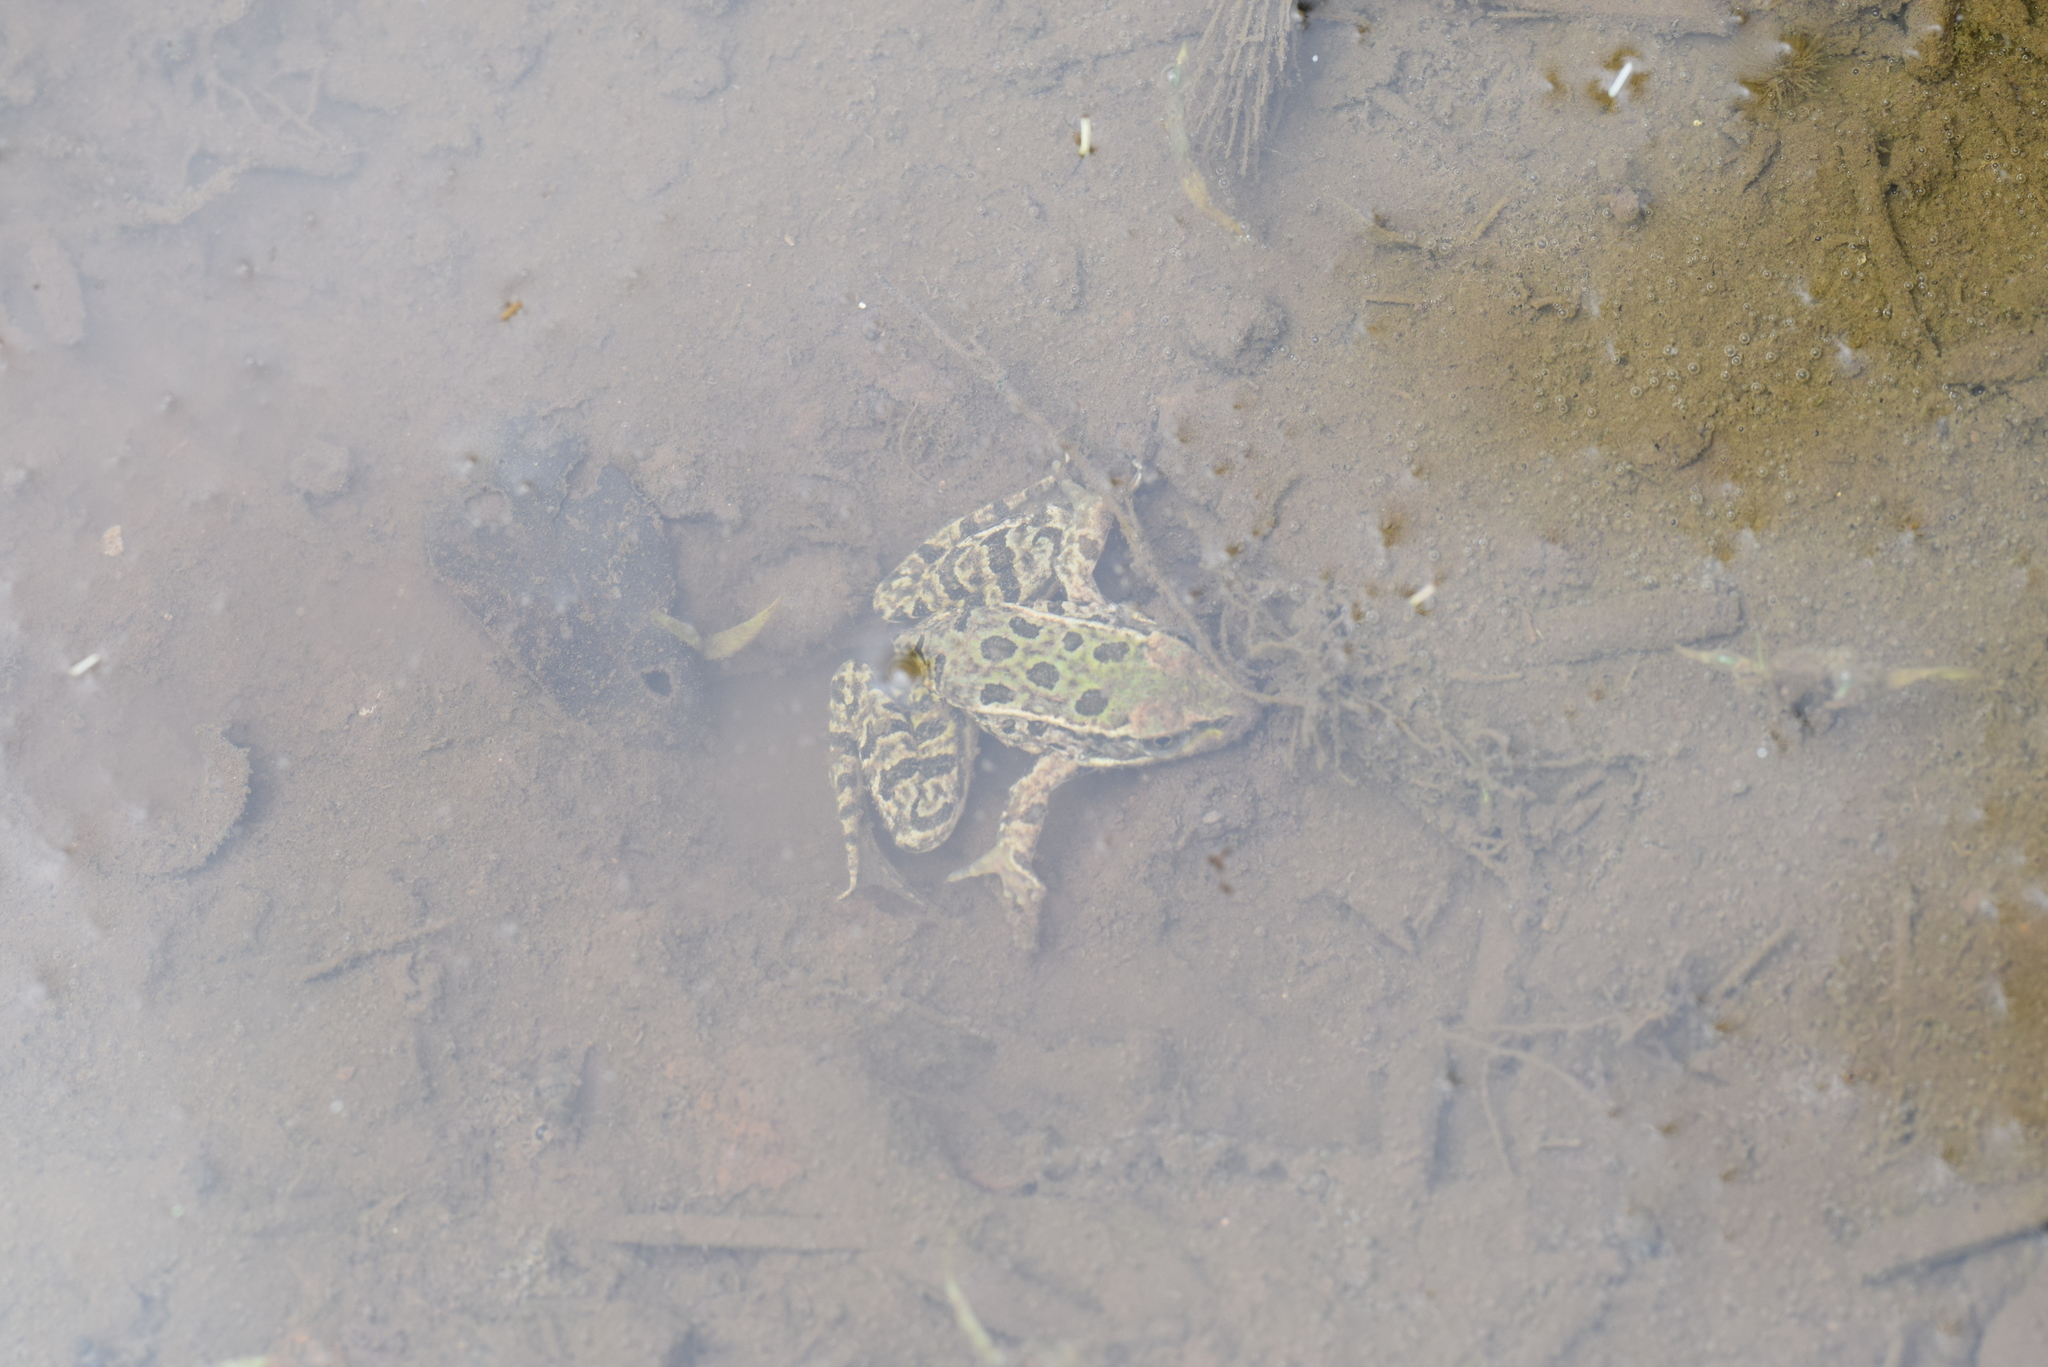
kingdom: Animalia
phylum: Chordata
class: Amphibia
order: Anura
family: Ranidae
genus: Lithobates
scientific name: Lithobates berlandieri
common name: Rio grande leopard frog
